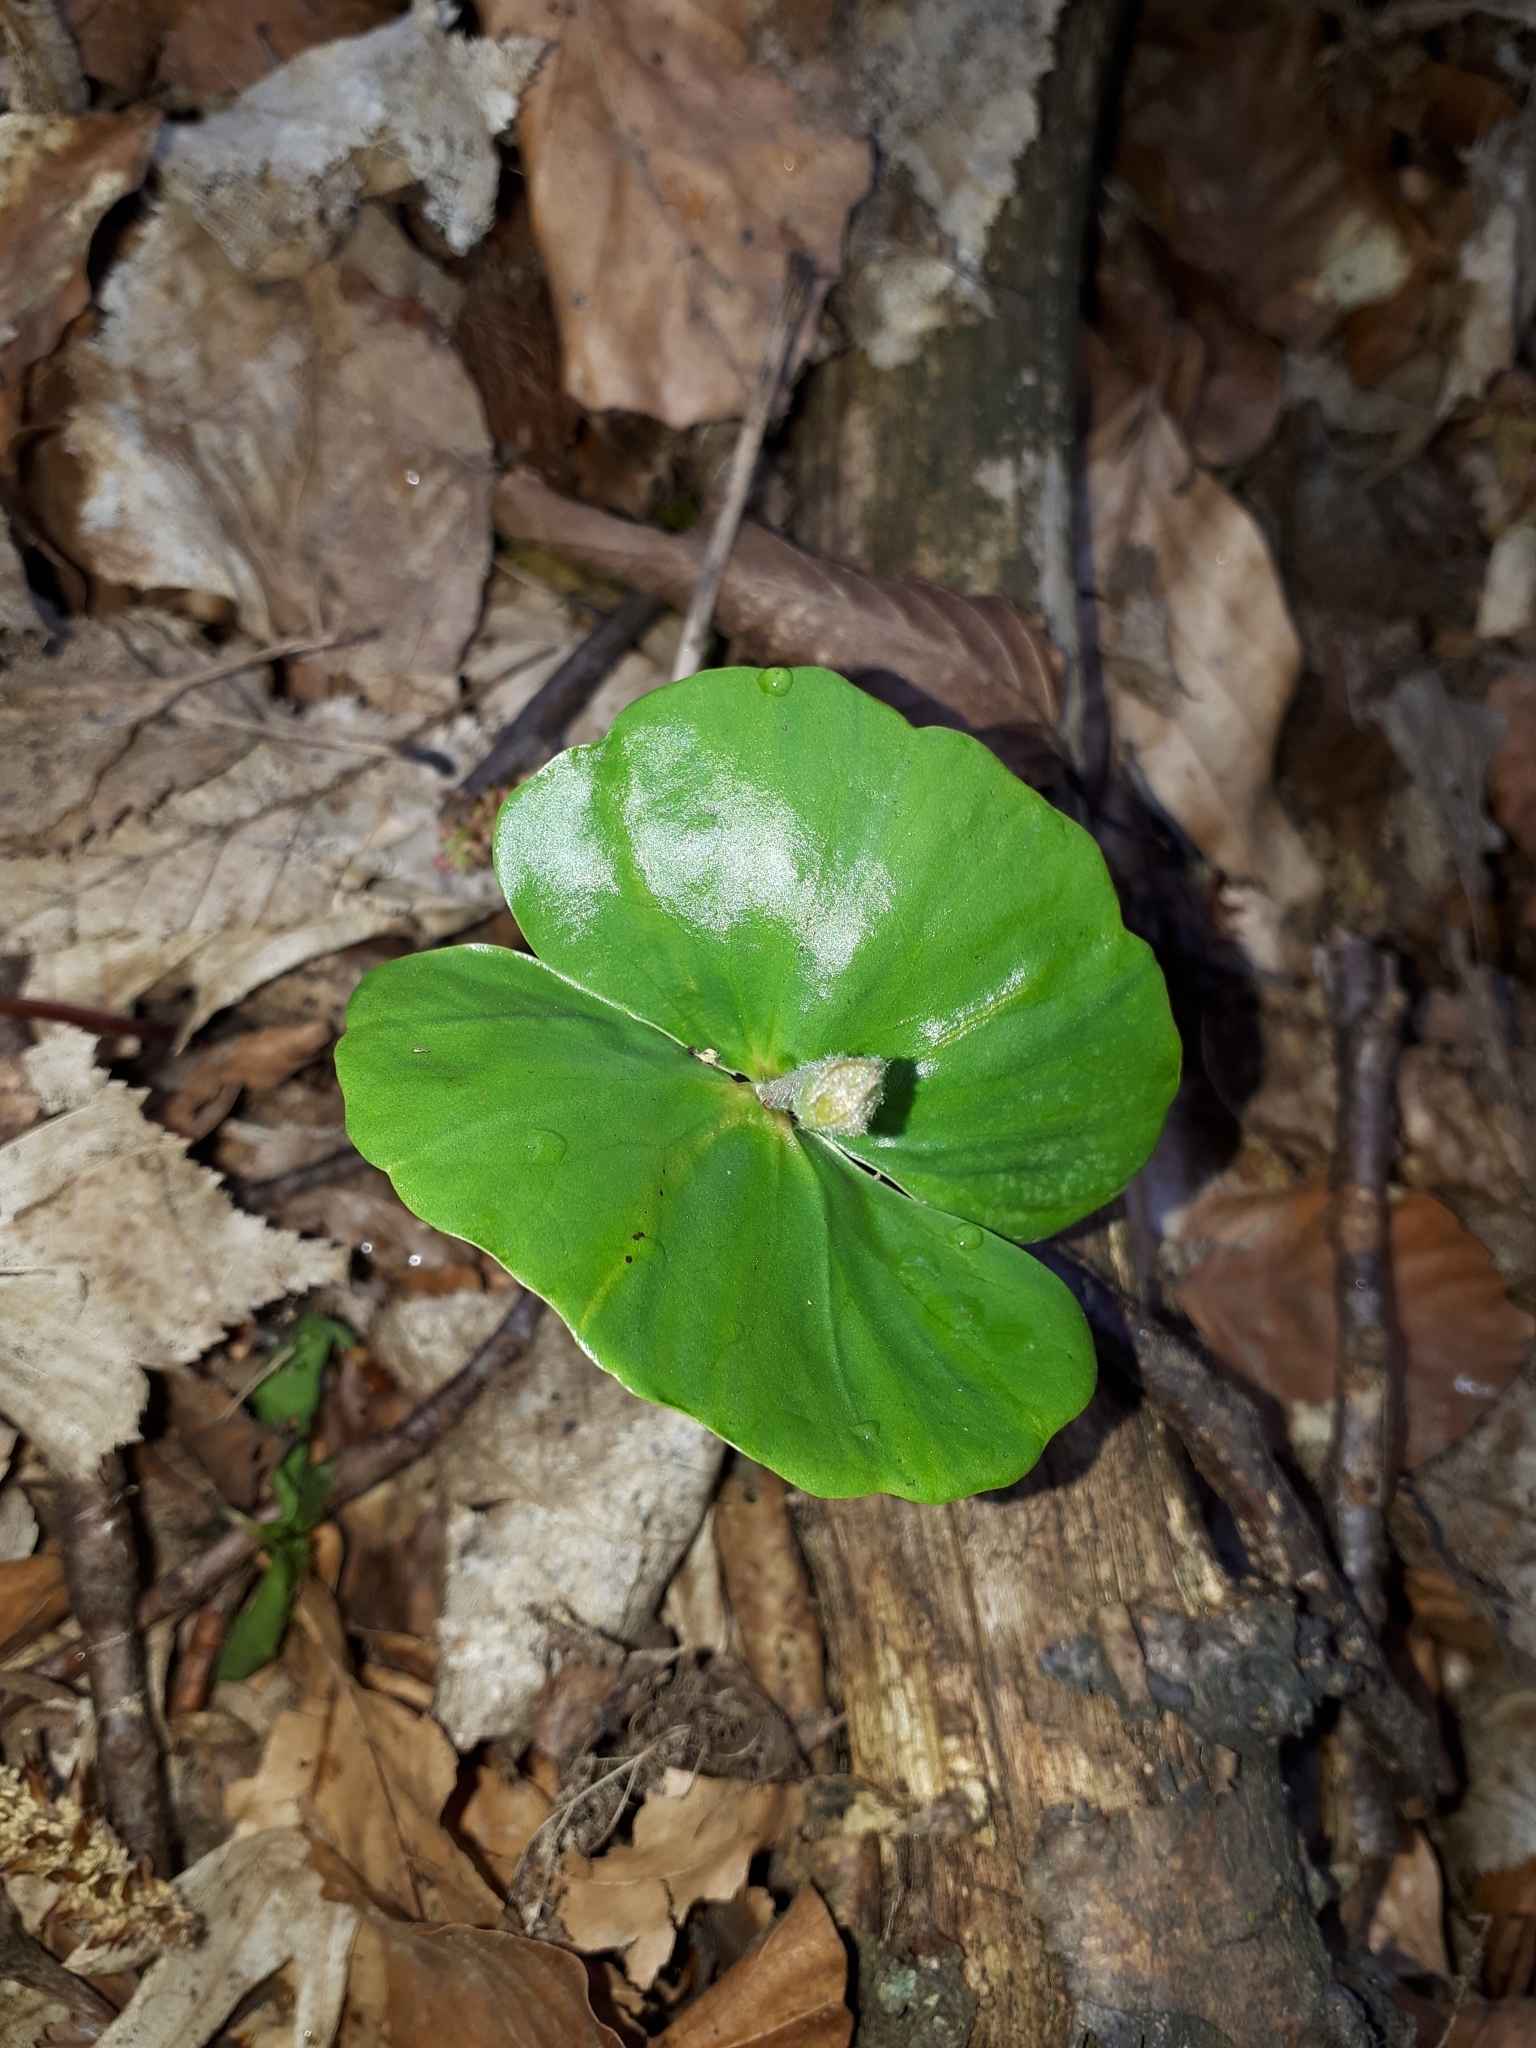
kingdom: Plantae
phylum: Tracheophyta
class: Magnoliopsida
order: Fagales
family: Fagaceae
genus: Fagus
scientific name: Fagus sylvatica
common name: Beech
